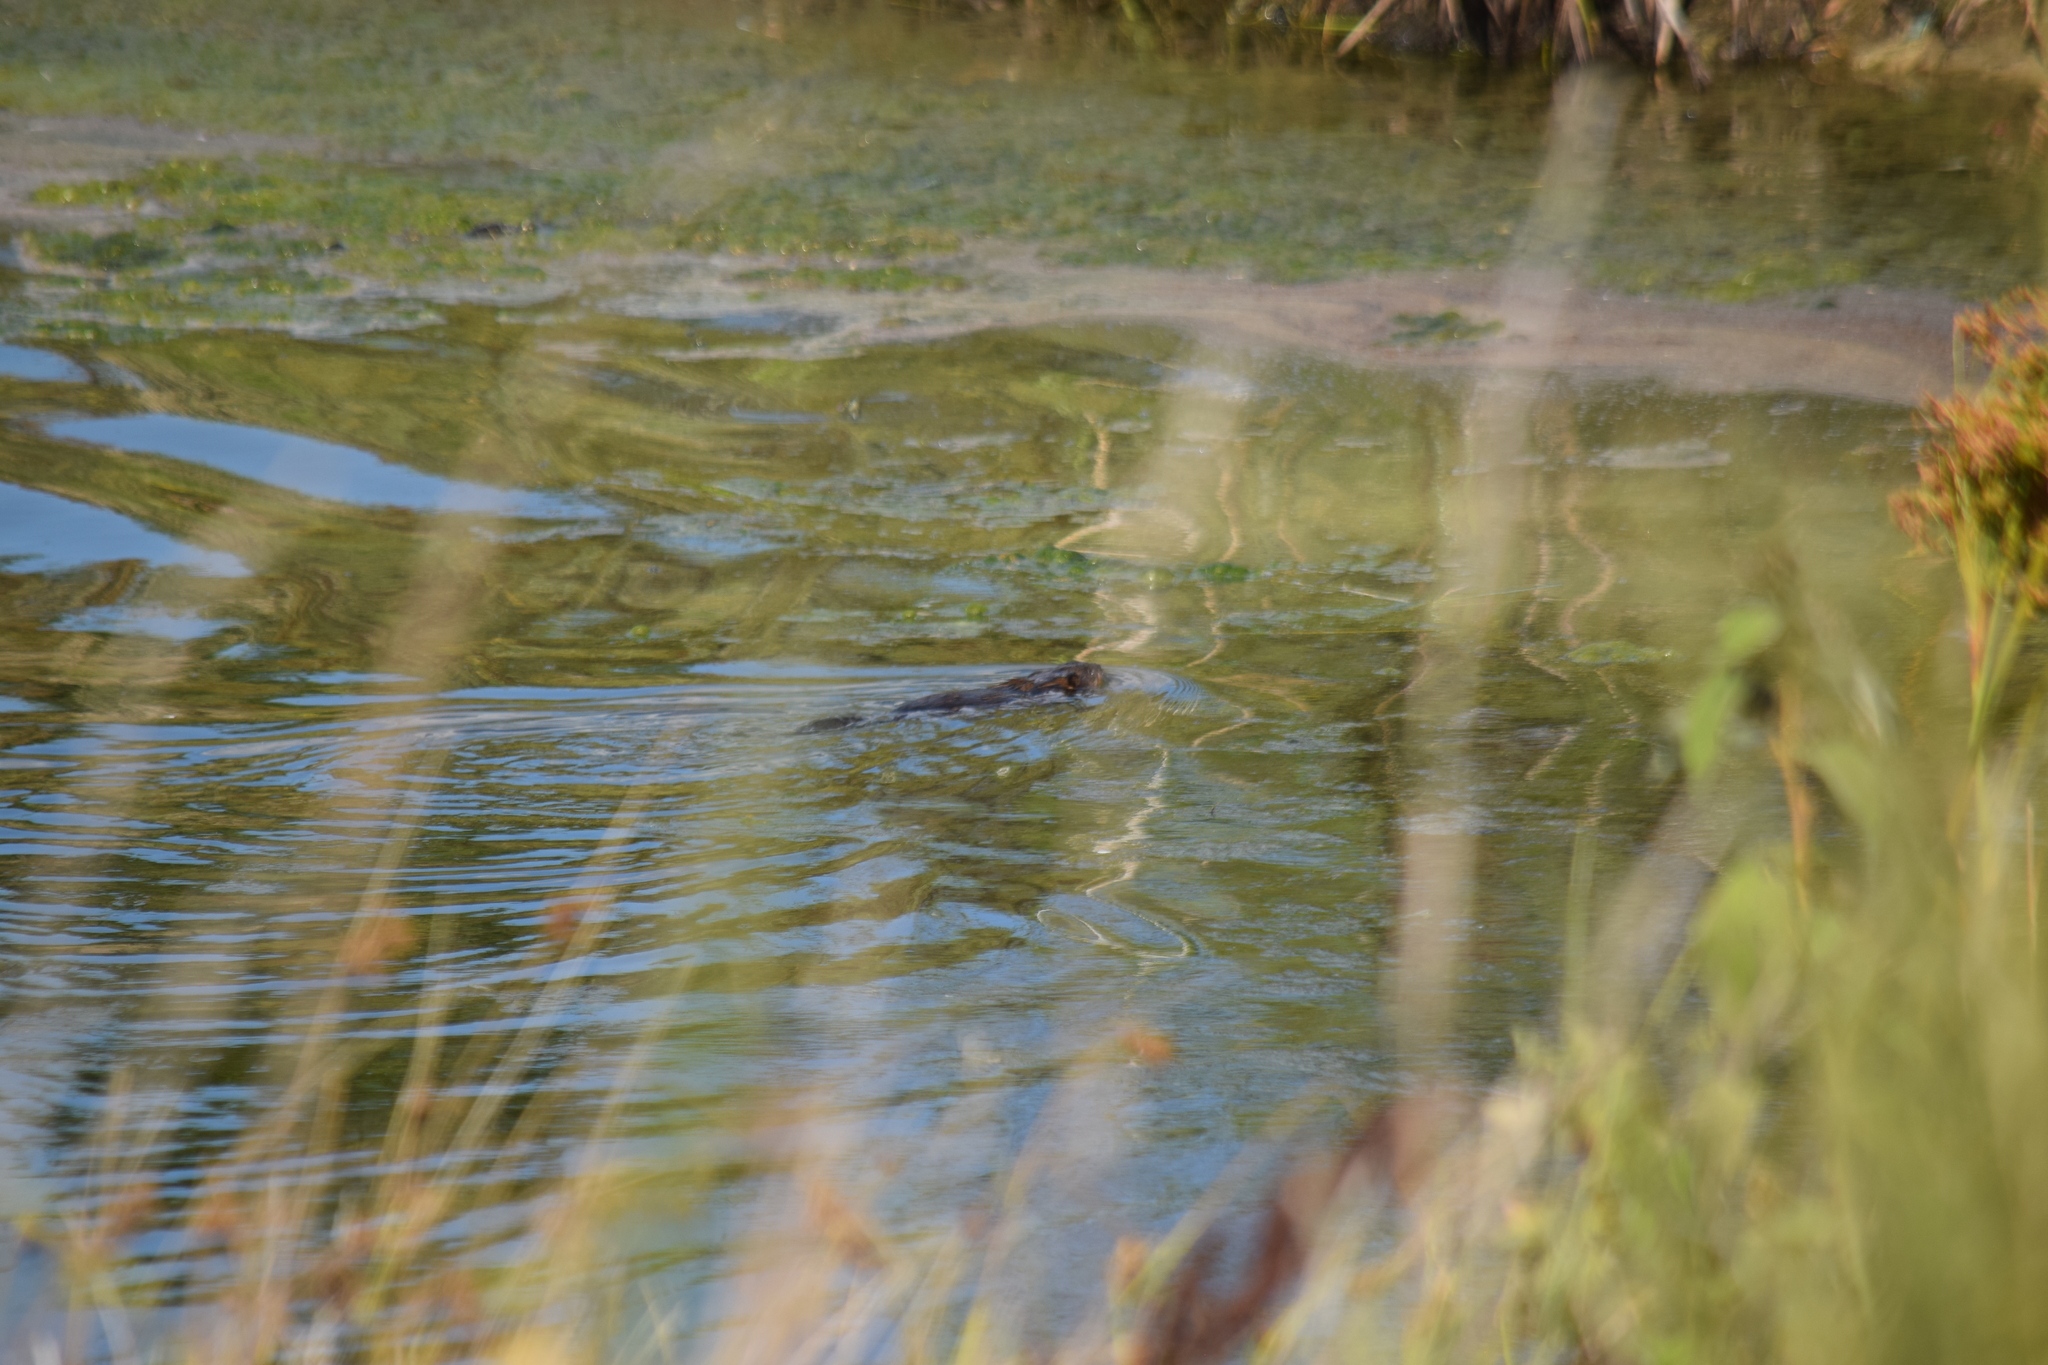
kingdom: Animalia
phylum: Chordata
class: Mammalia
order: Rodentia
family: Cricetidae
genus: Ondatra
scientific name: Ondatra zibethicus
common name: Muskrat
